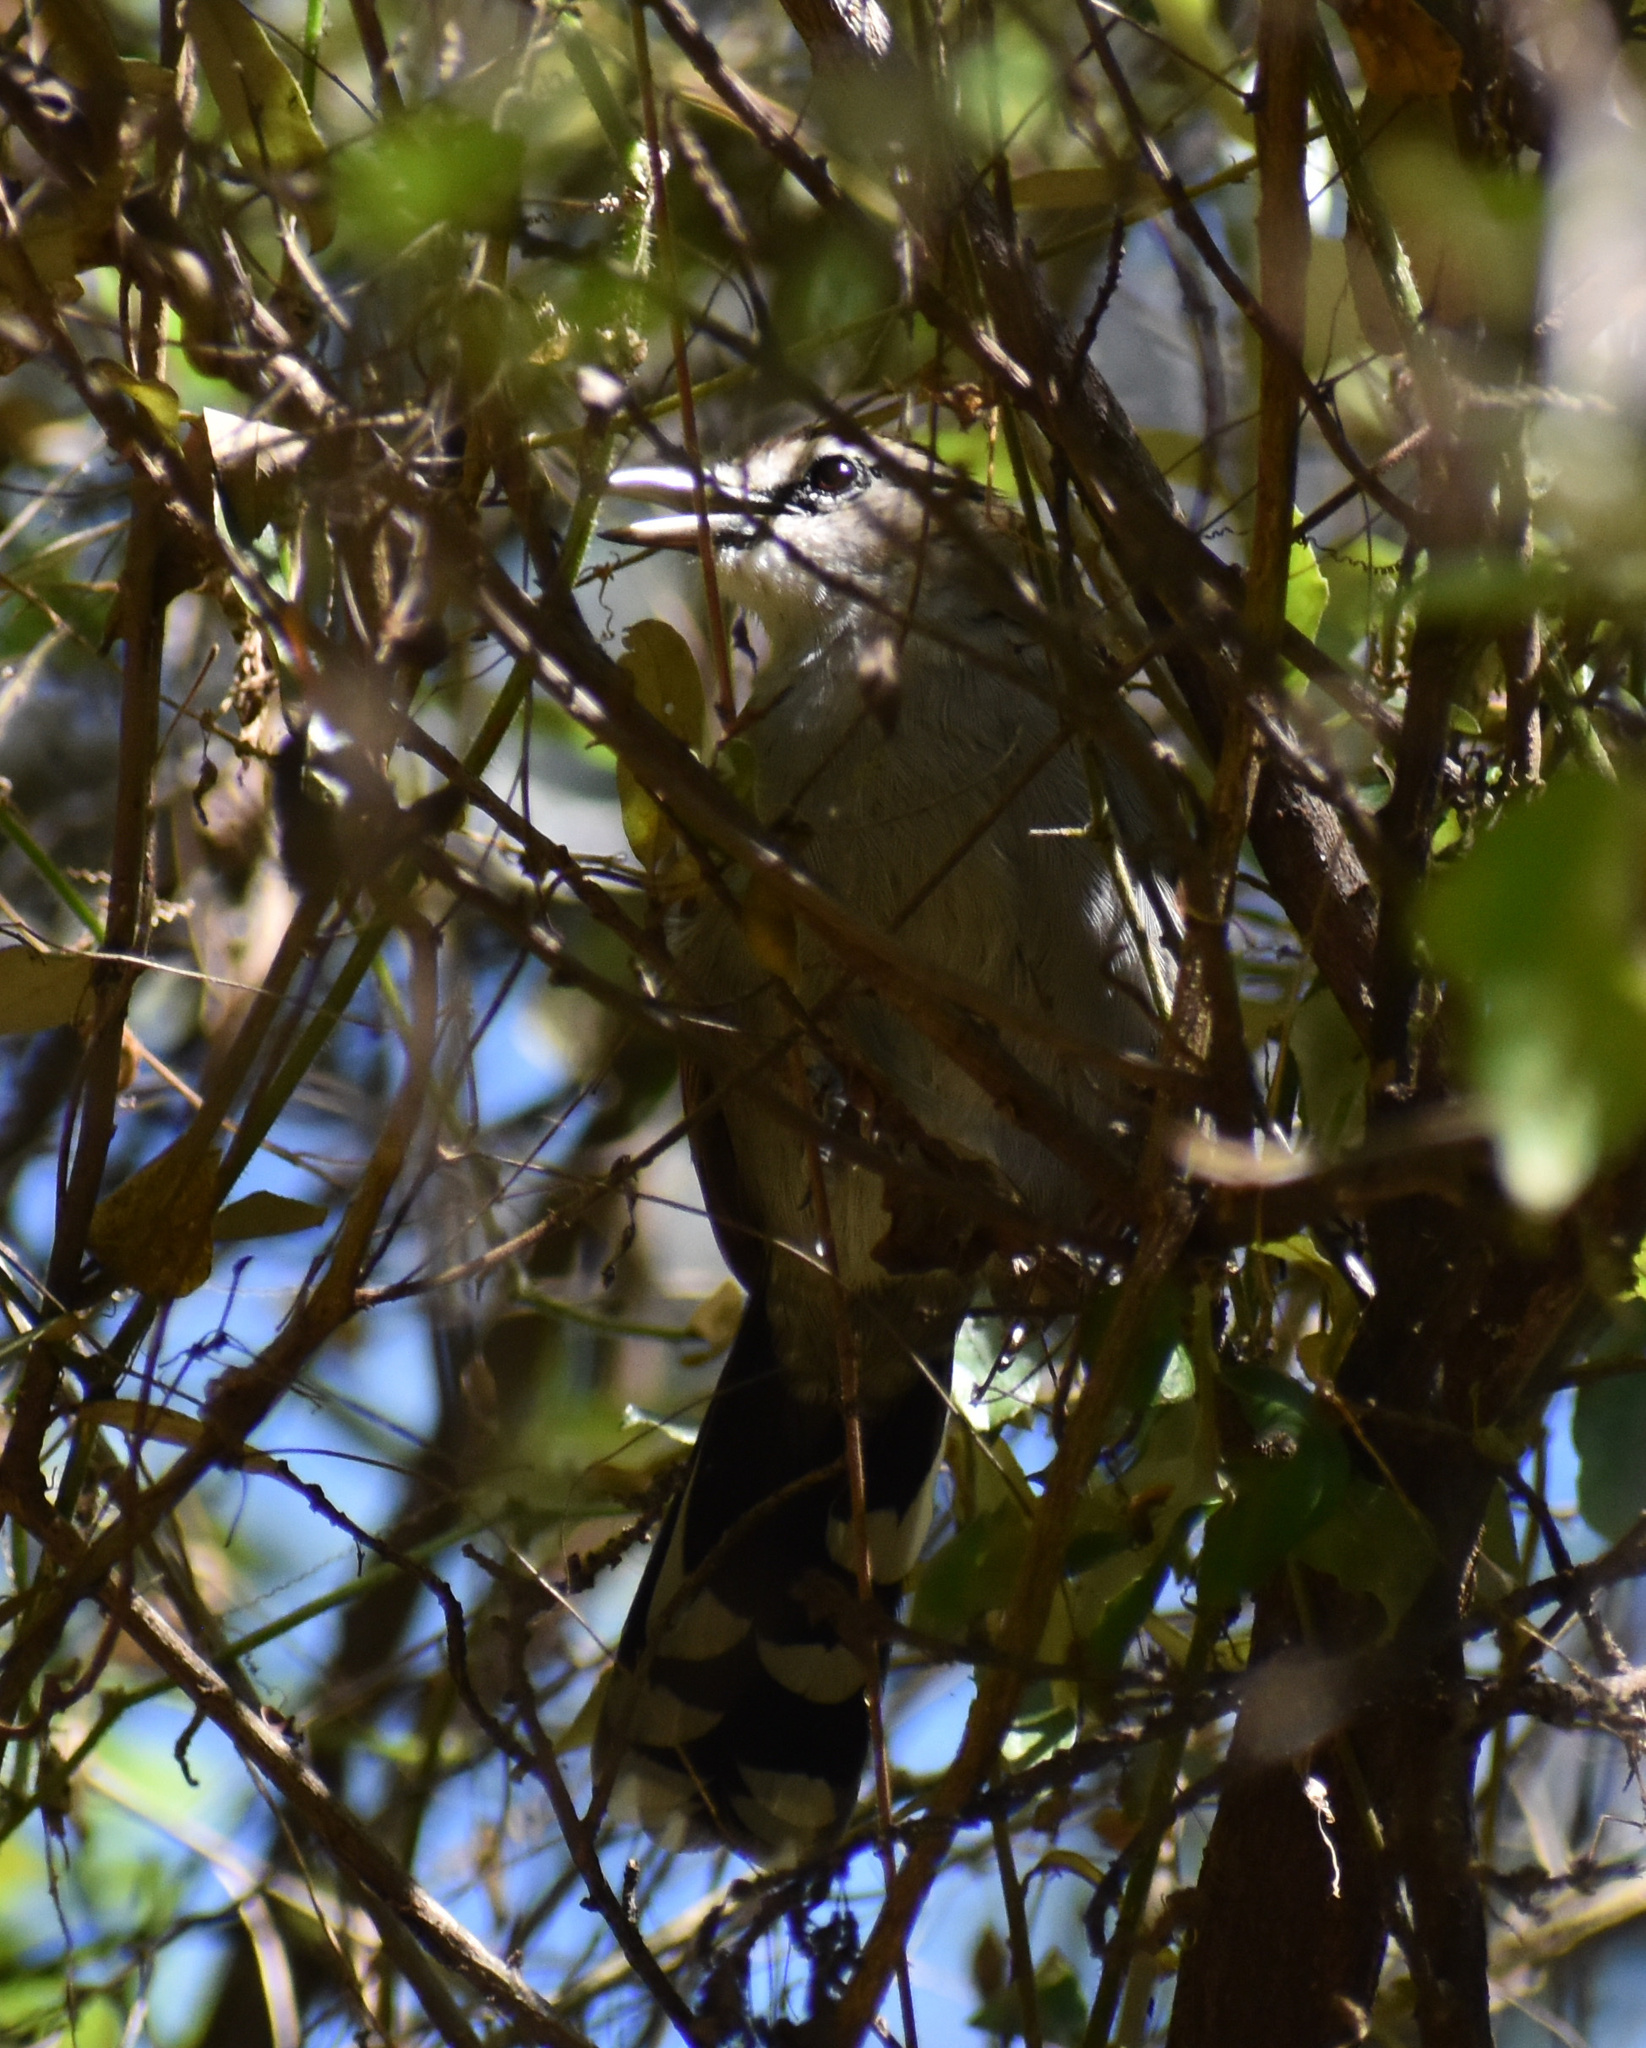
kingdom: Animalia
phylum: Chordata
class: Aves
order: Passeriformes
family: Malaconotidae
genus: Tchagra
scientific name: Tchagra tchagra
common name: Southern tchagra
